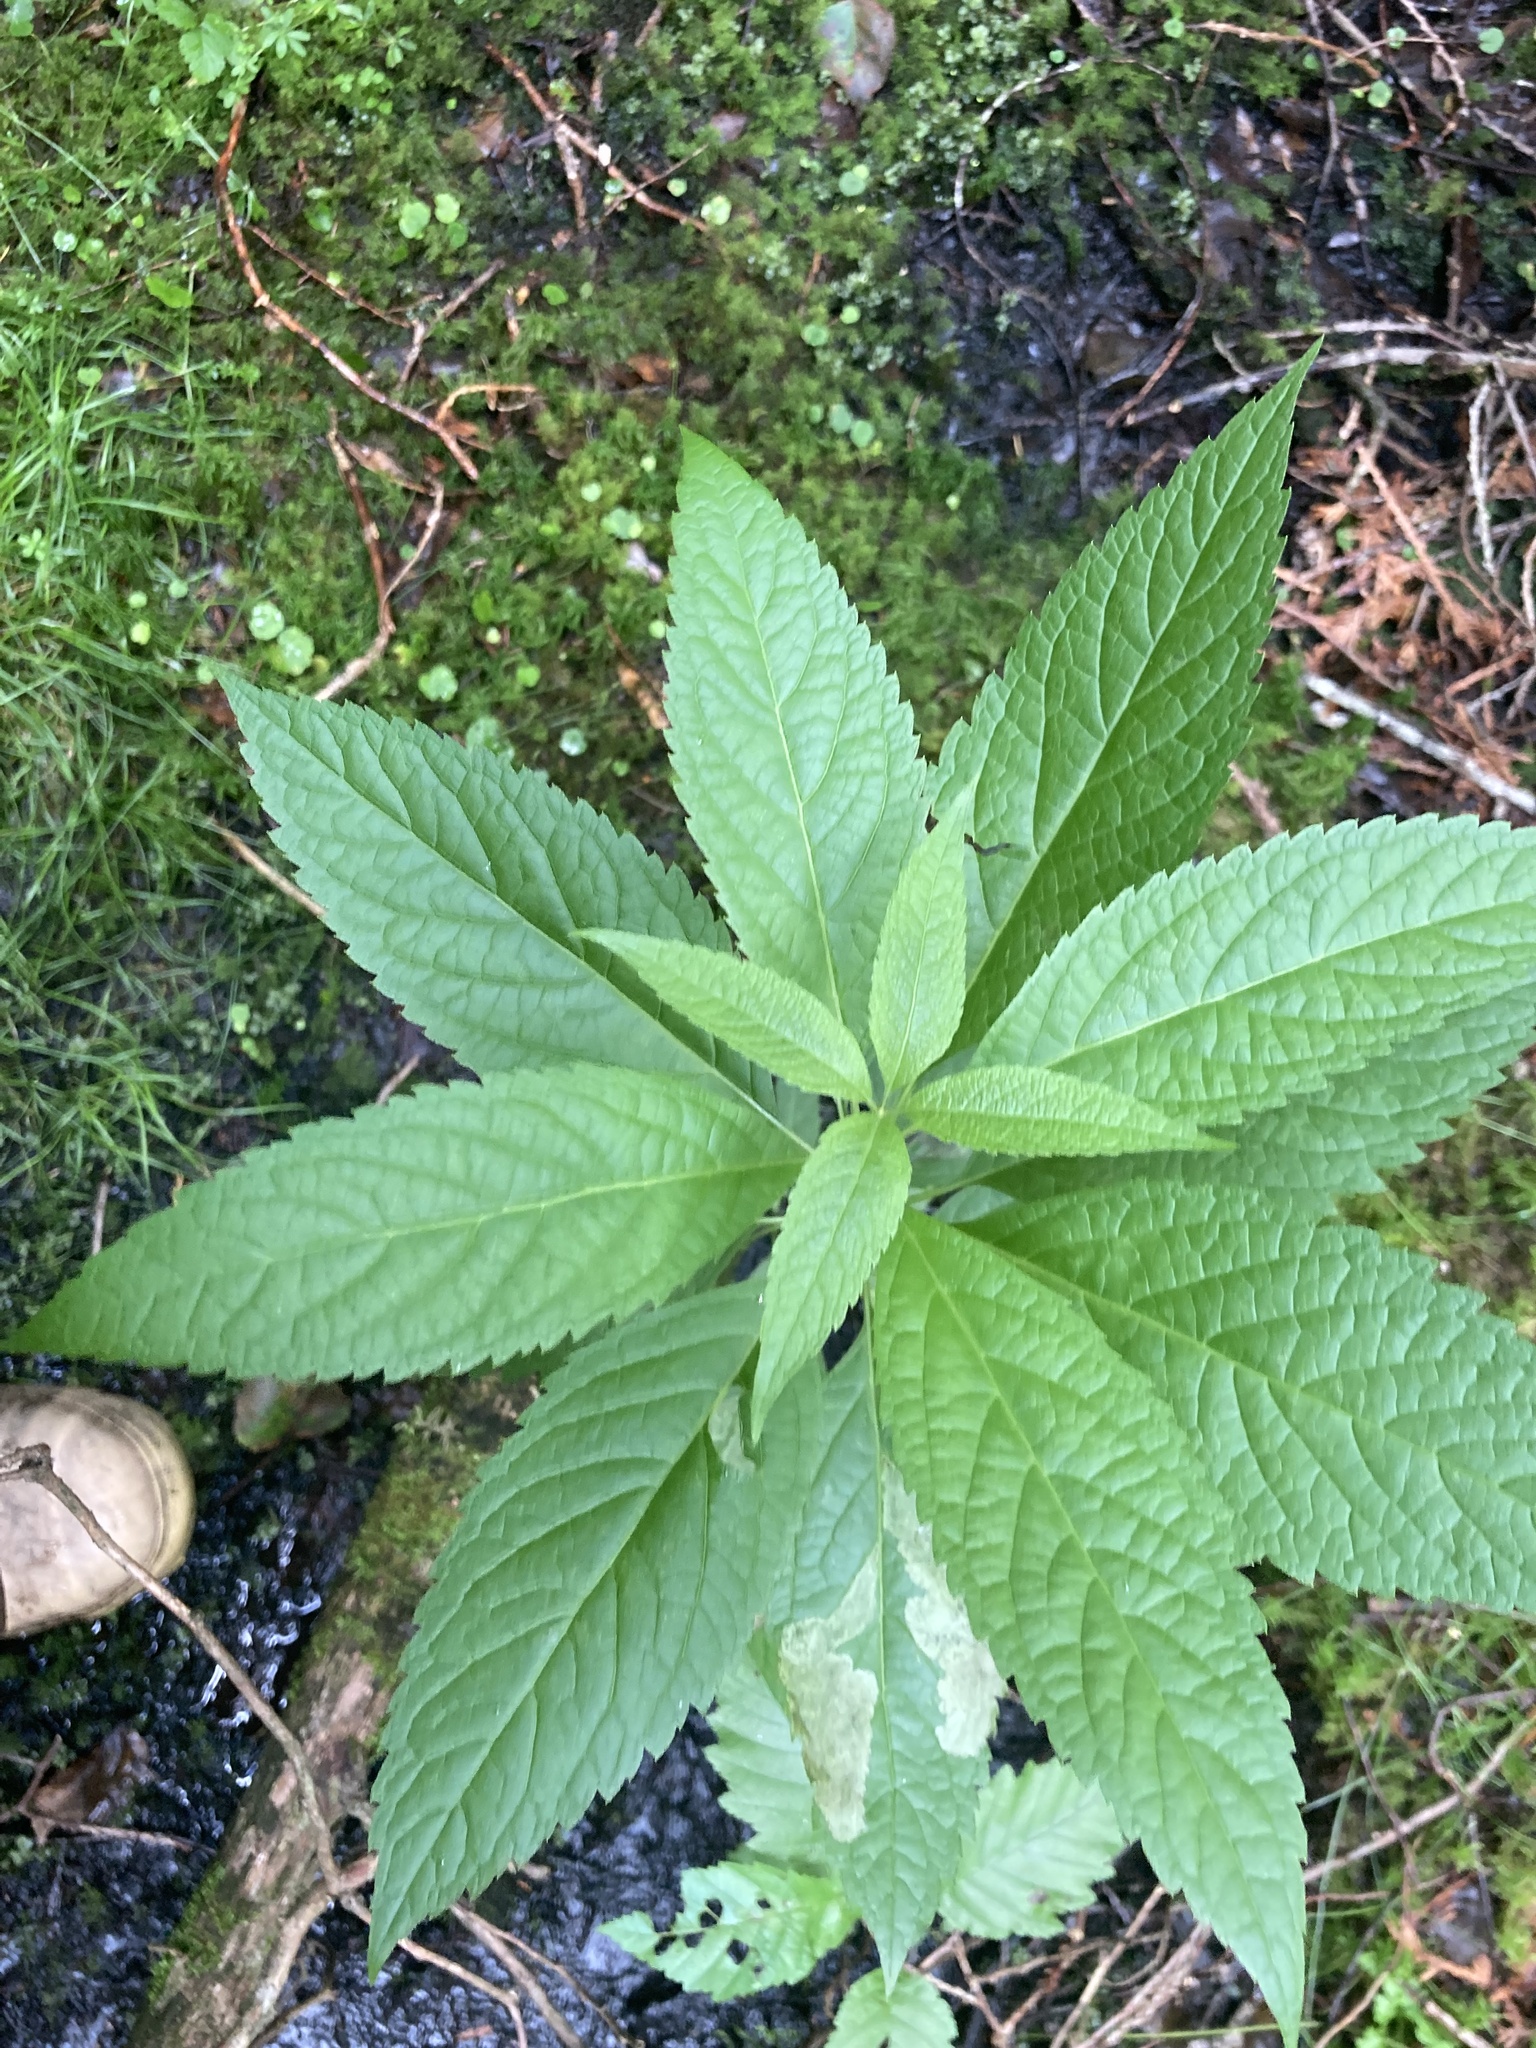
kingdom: Plantae
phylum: Tracheophyta
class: Magnoliopsida
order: Asterales
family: Asteraceae
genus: Eutrochium
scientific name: Eutrochium maculatum
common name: Spotted joe pye weed
